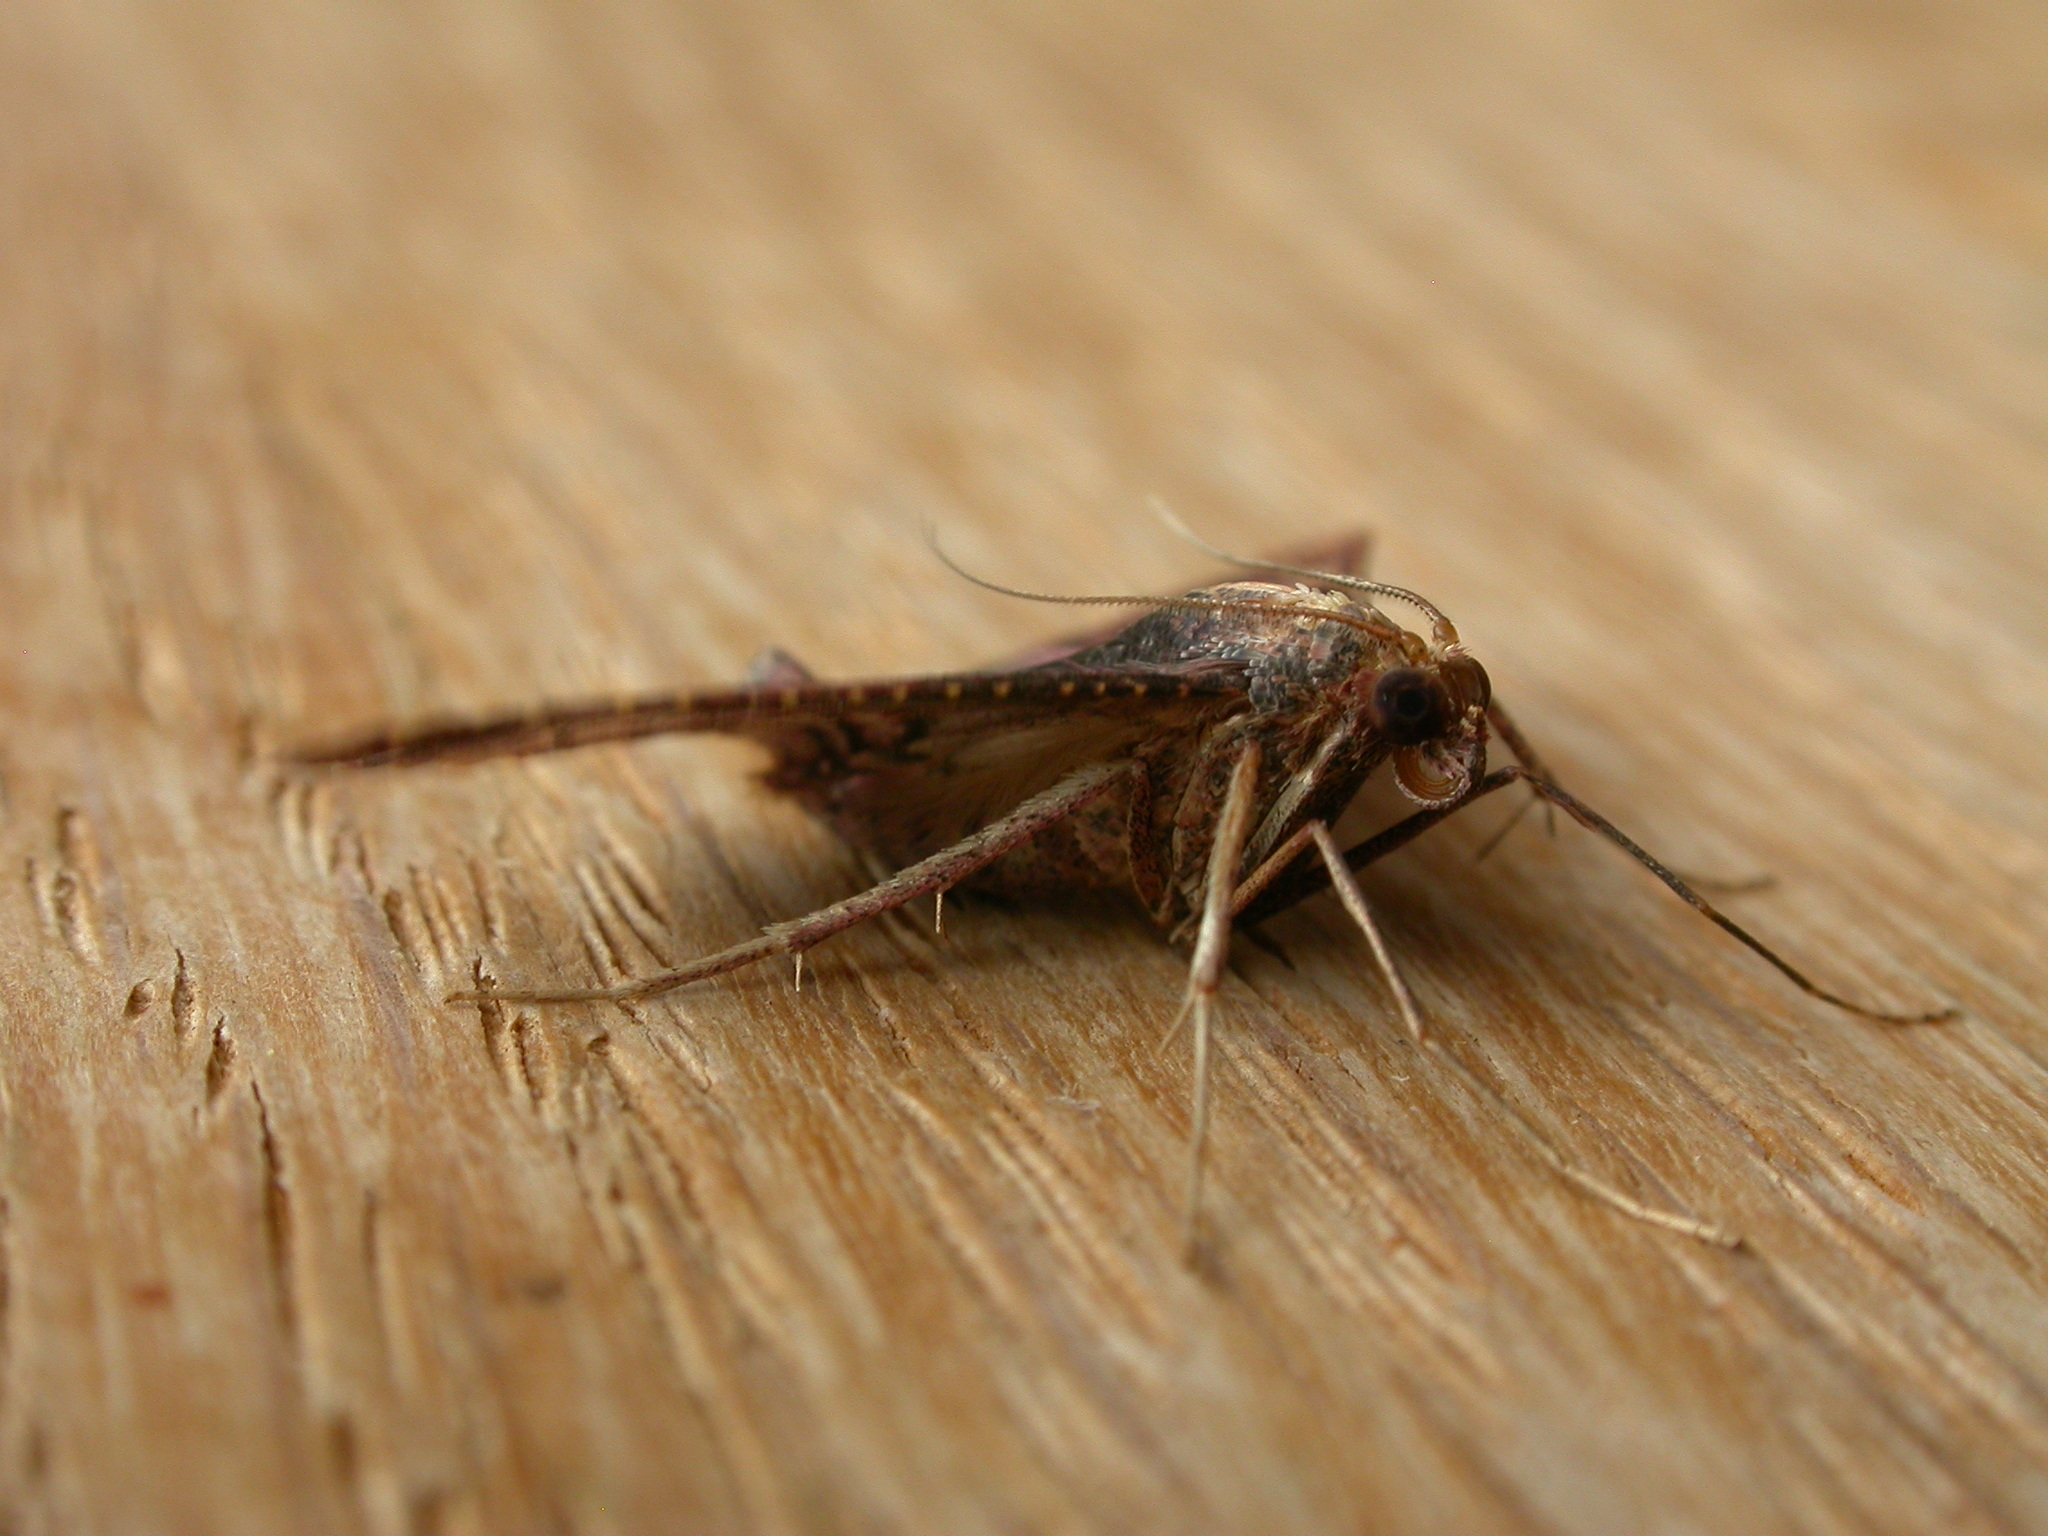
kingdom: Animalia
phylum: Arthropoda
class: Insecta
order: Lepidoptera
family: Pyralidae
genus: Endotricha
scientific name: Endotricha ignealis
